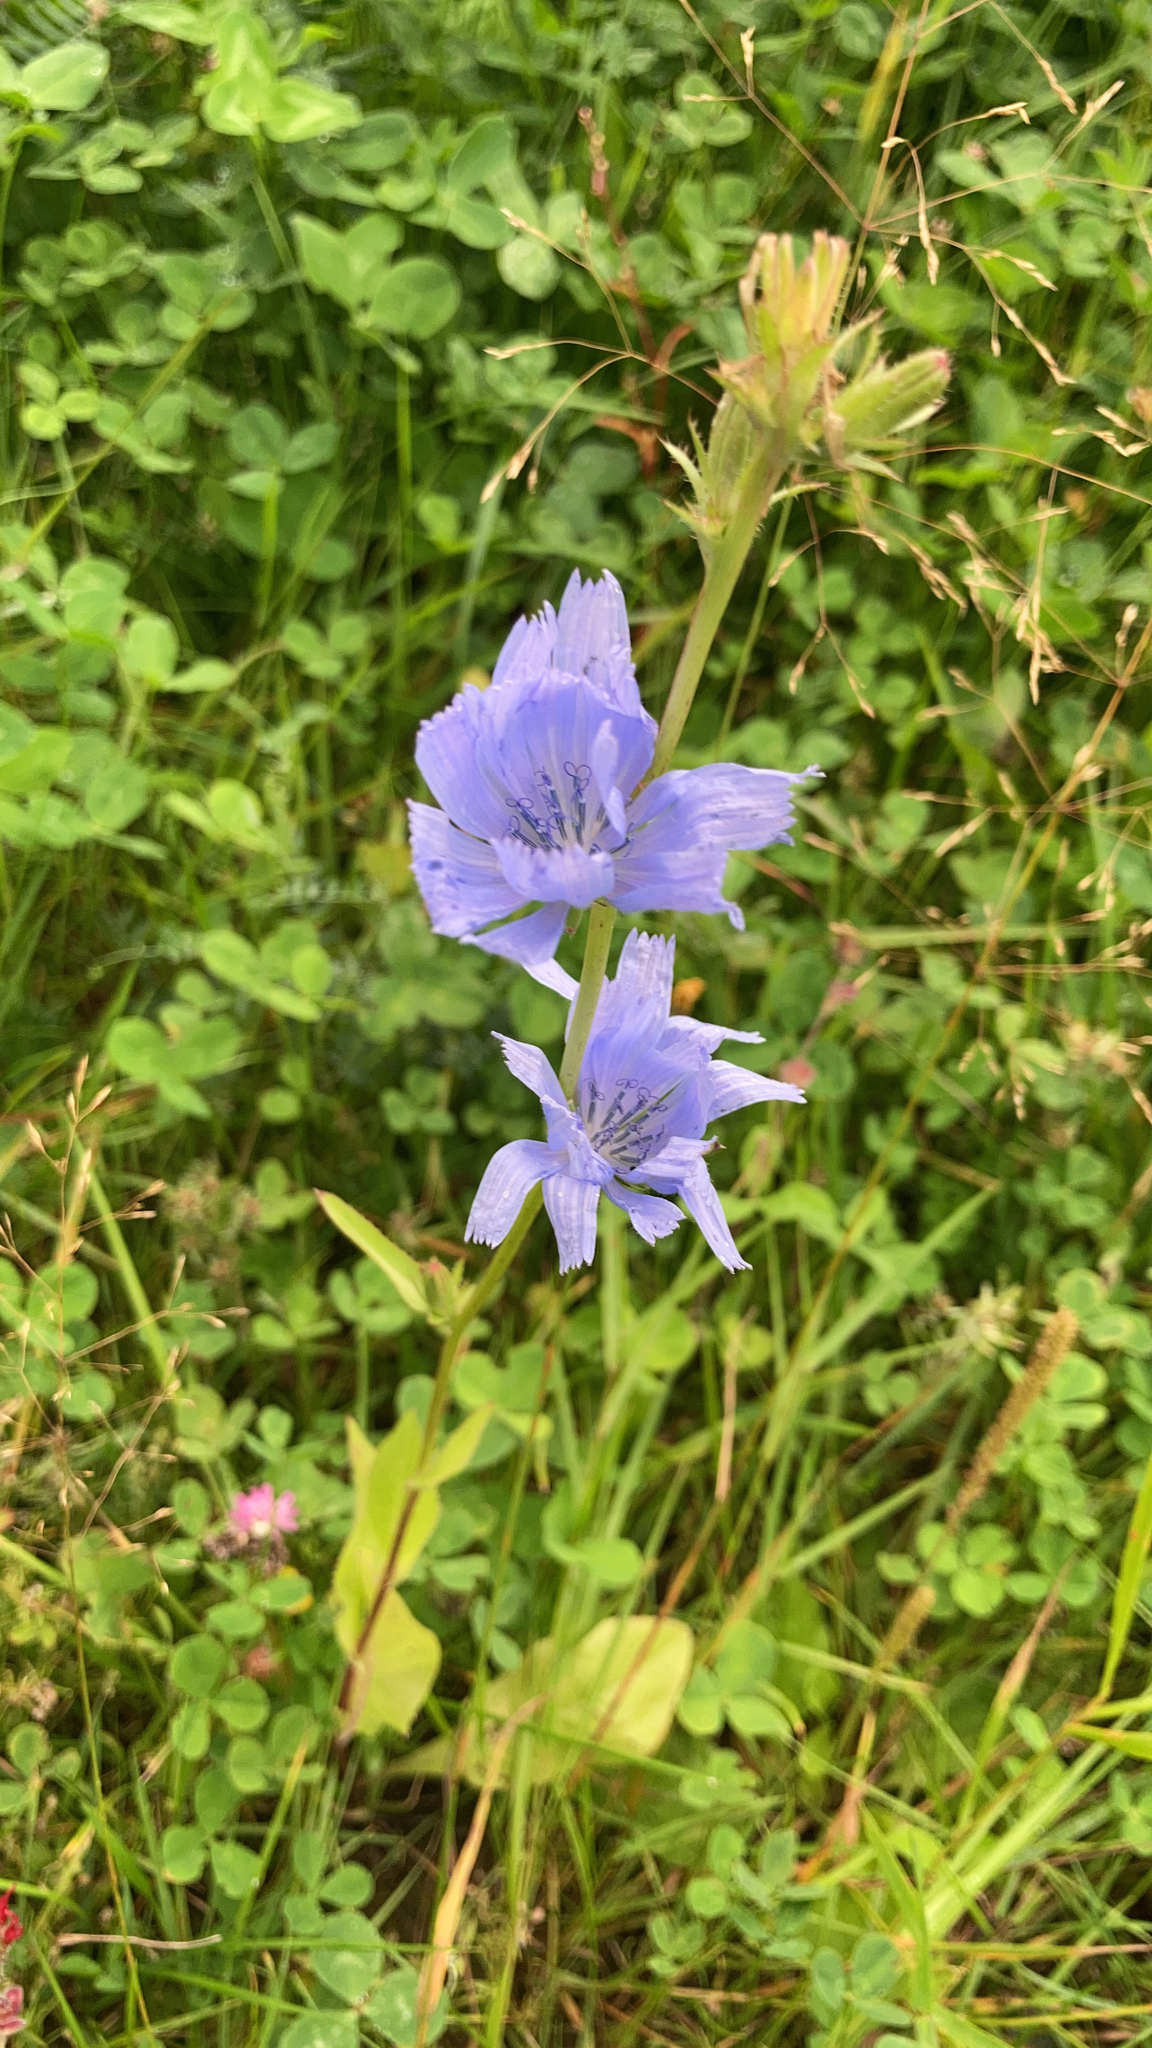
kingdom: Plantae
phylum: Tracheophyta
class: Magnoliopsida
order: Asterales
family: Asteraceae
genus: Cichorium
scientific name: Cichorium intybus
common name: Chicory
